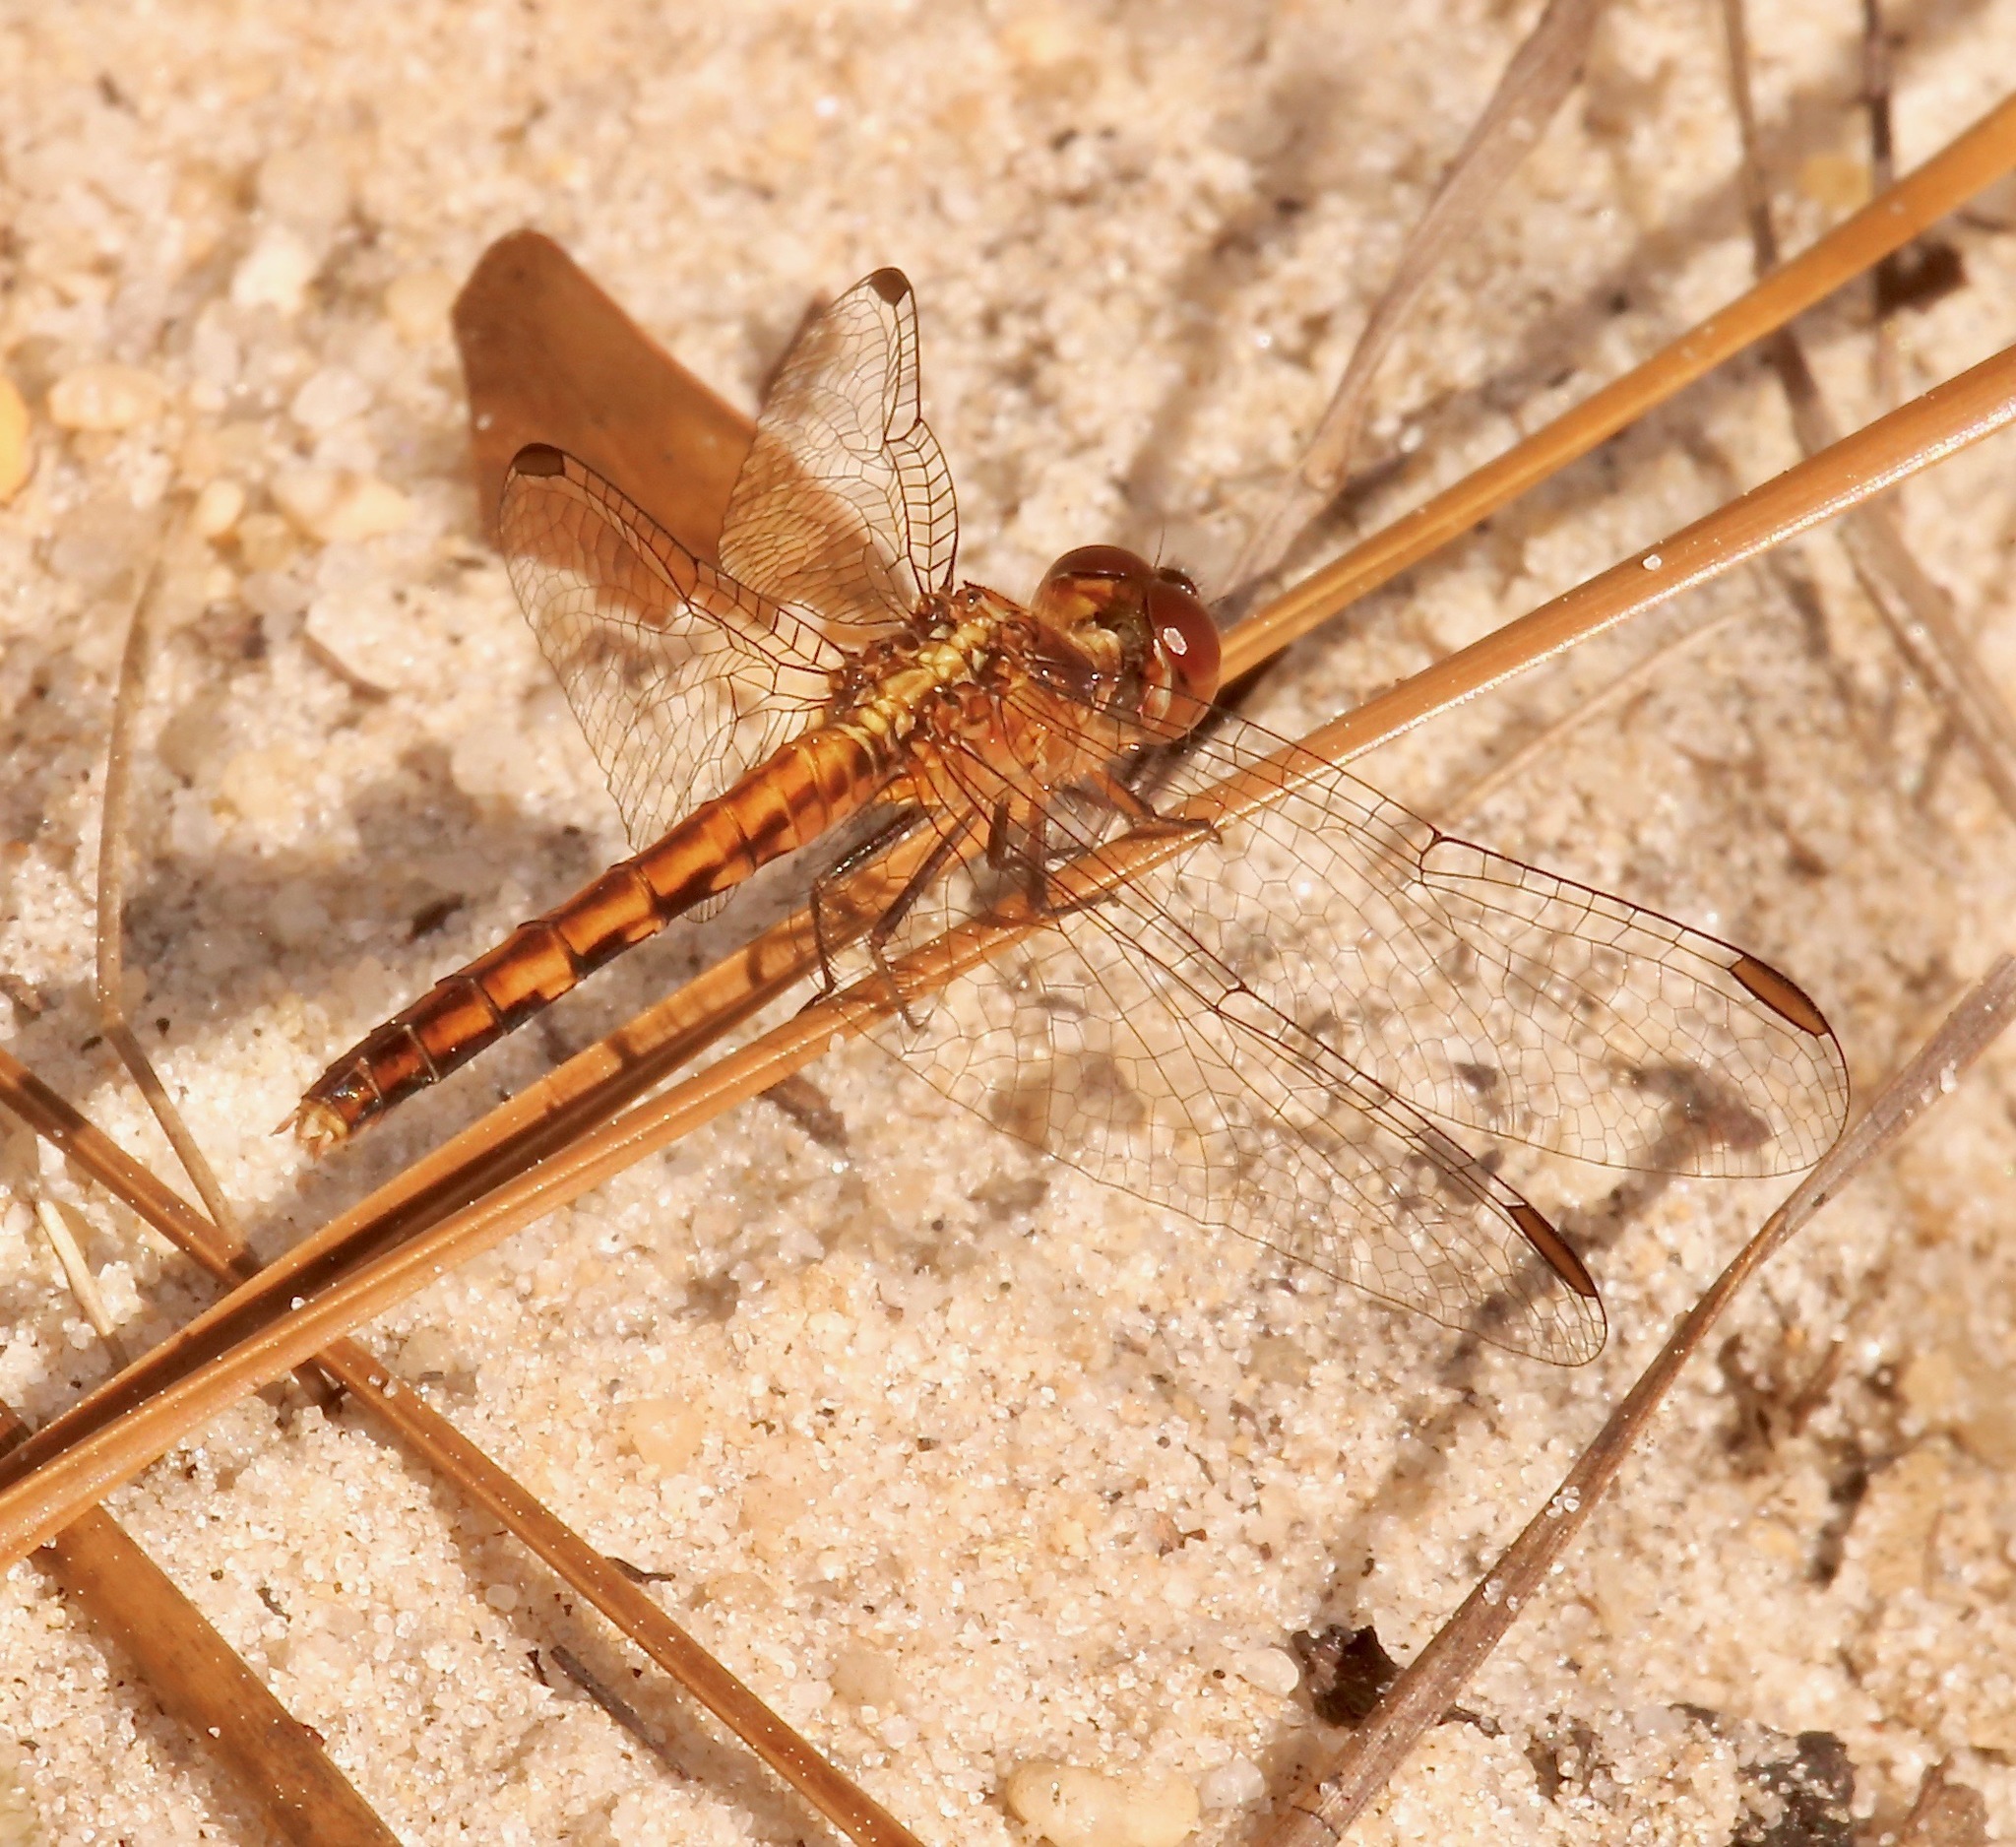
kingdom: Animalia
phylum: Arthropoda
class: Insecta
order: Odonata
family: Libellulidae
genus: Erythrodiplax
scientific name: Erythrodiplax minuscula
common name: Little blue dragonlet
